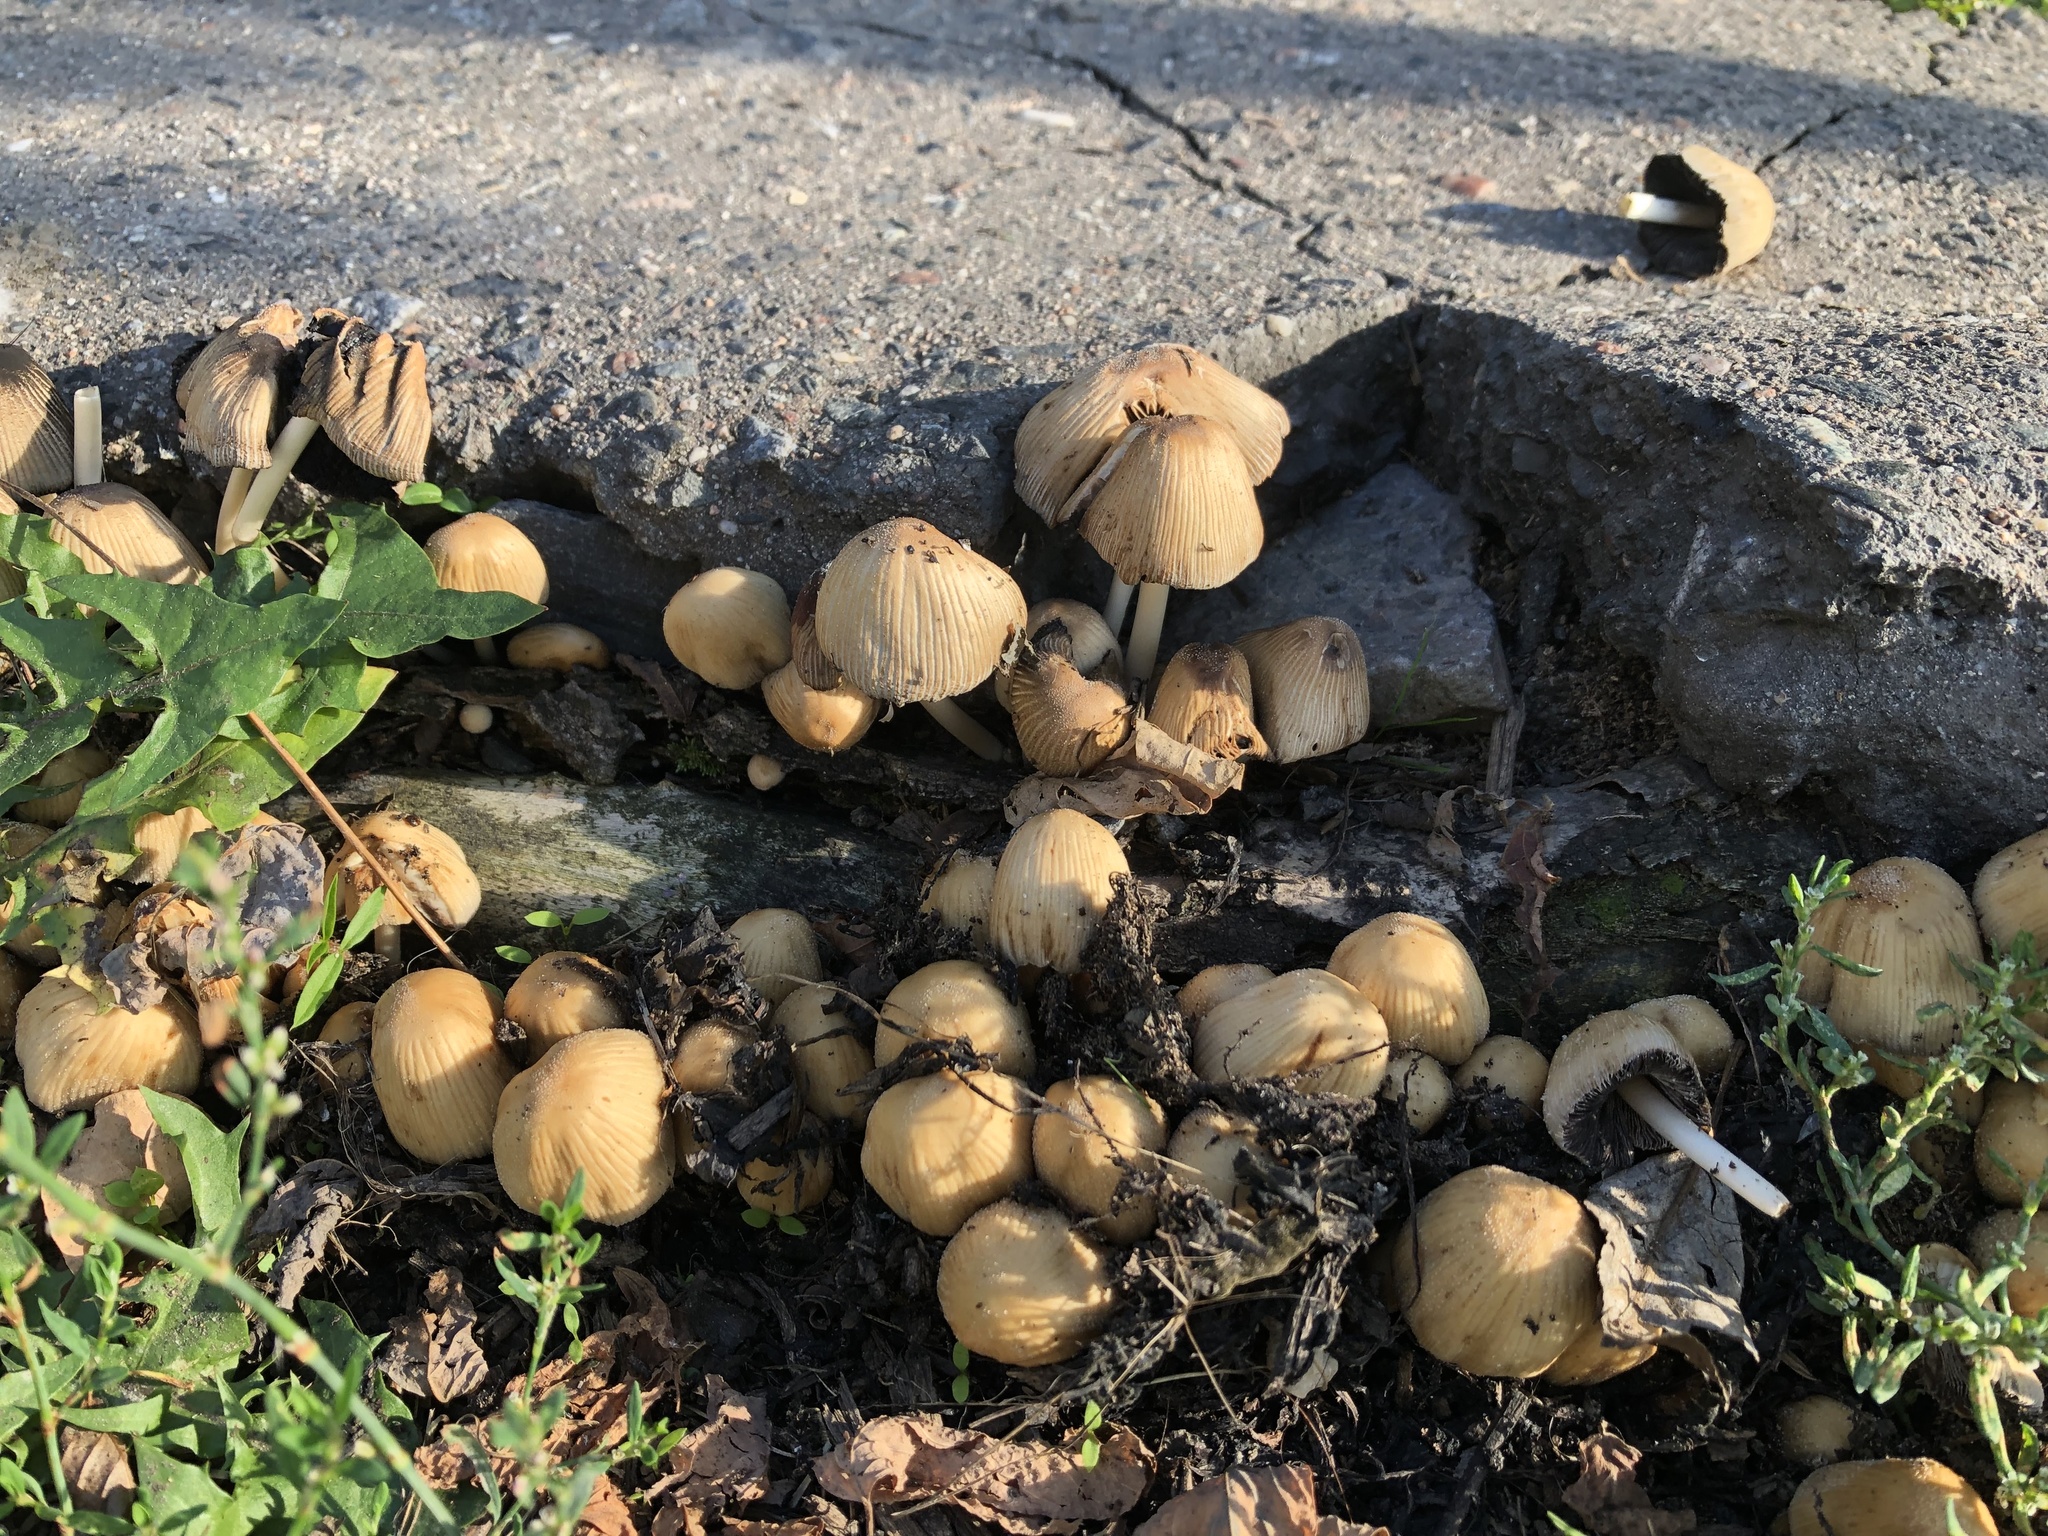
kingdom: Fungi
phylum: Basidiomycota
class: Agaricomycetes
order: Agaricales
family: Psathyrellaceae
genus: Coprinellus
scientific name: Coprinellus micaceus
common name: Glistening ink-cap
